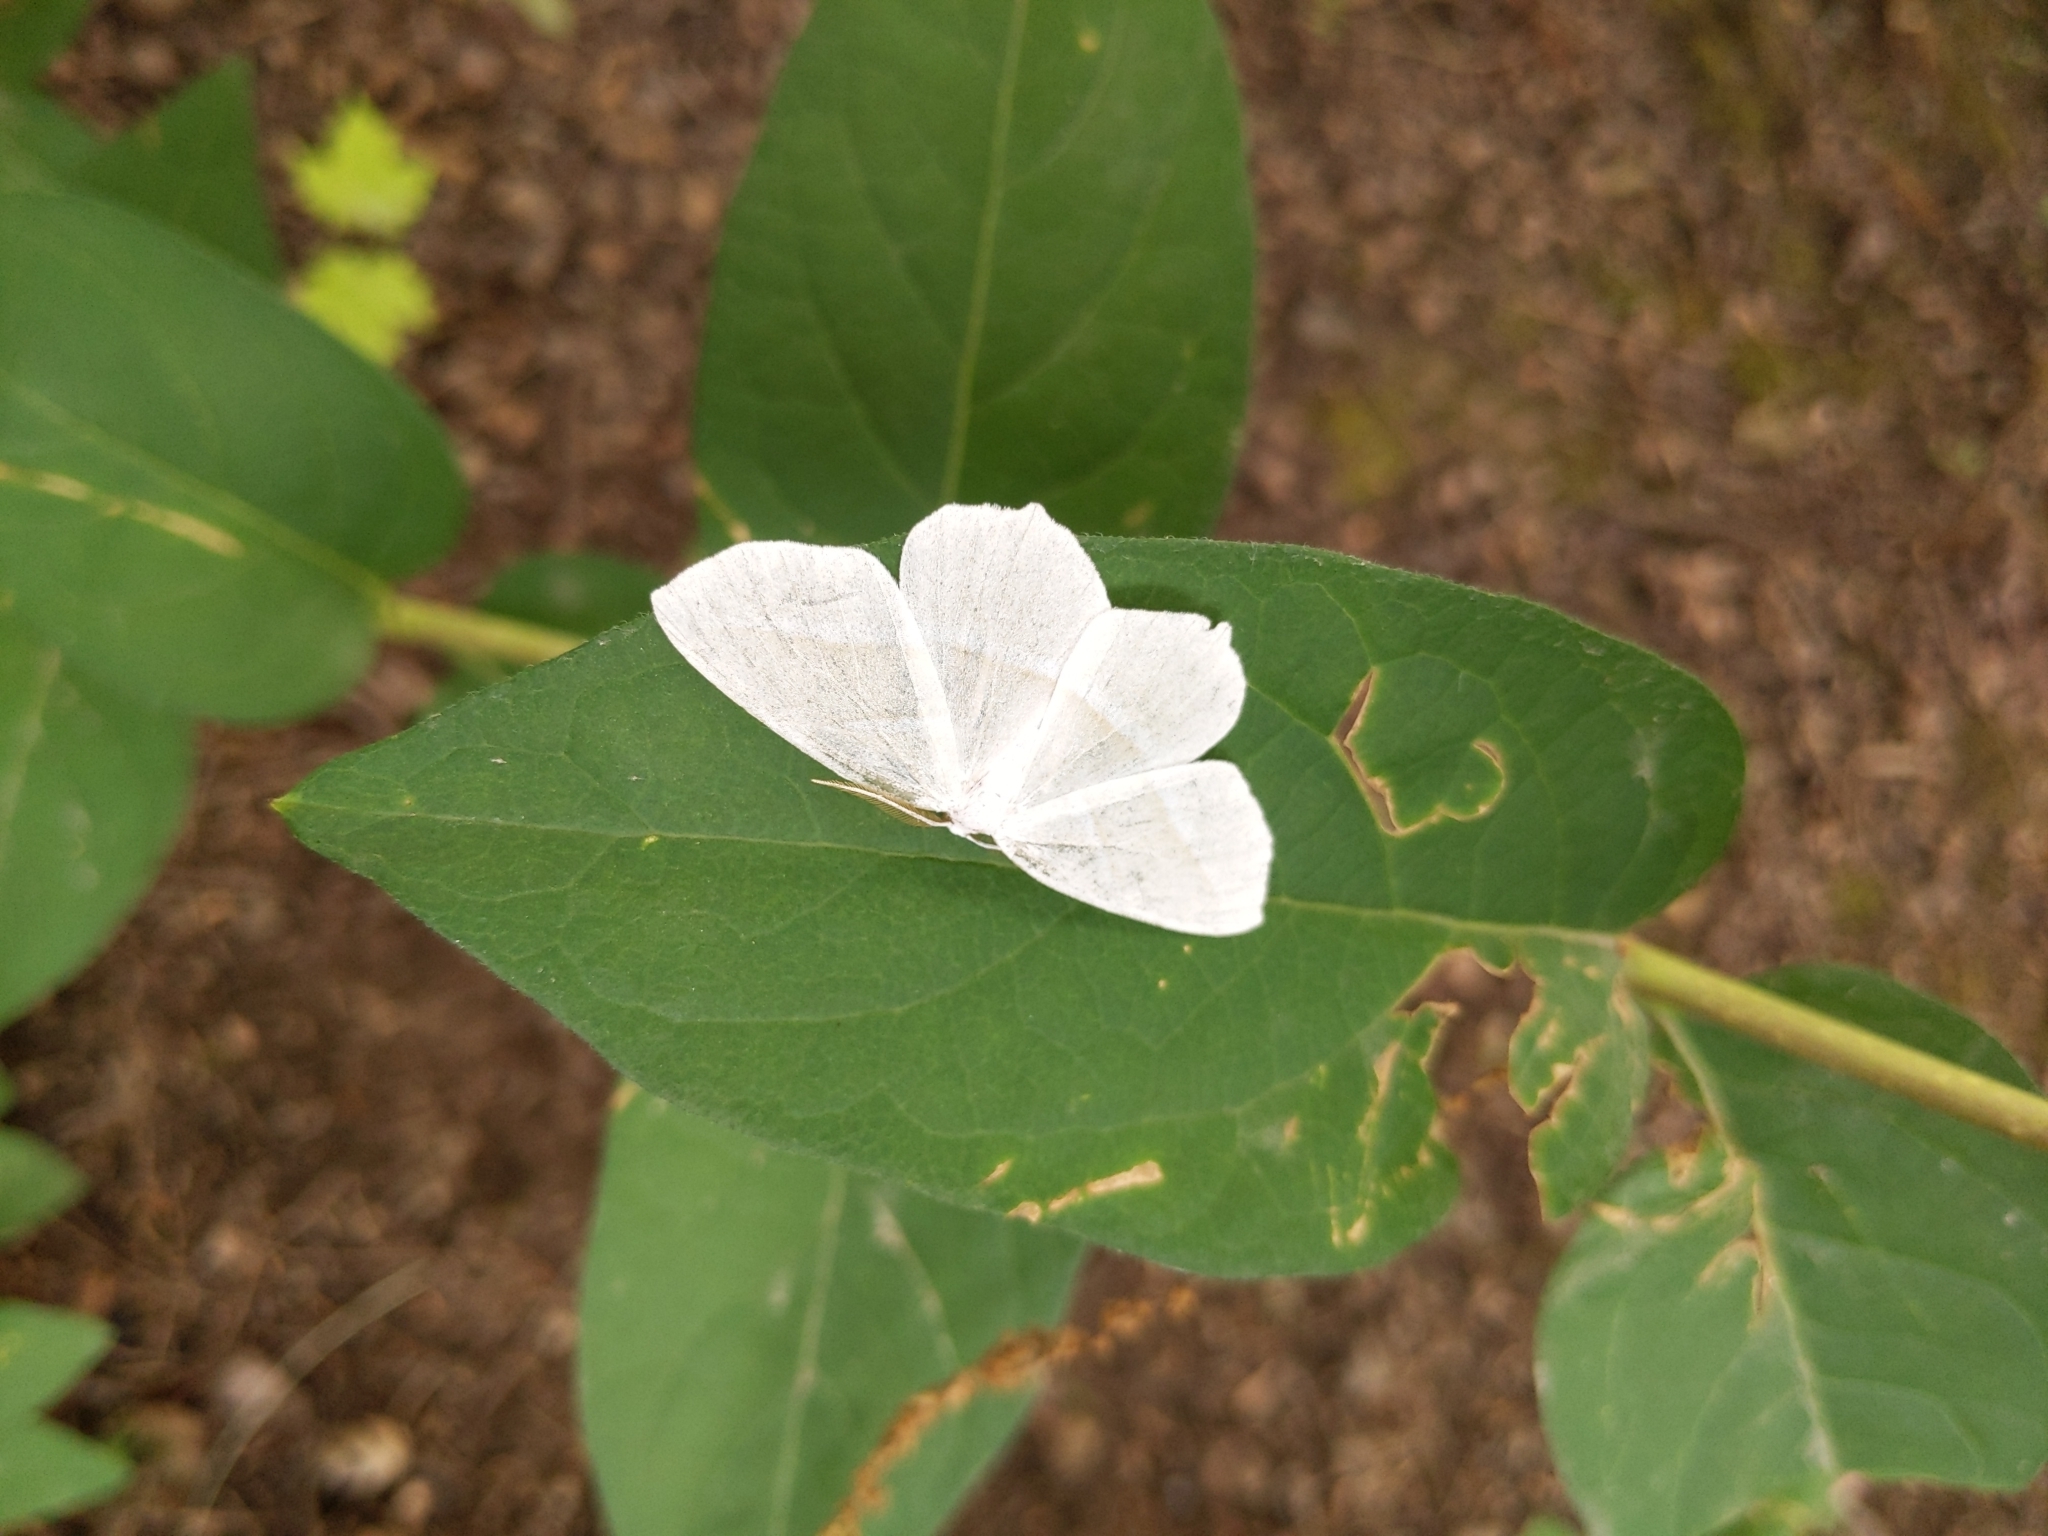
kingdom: Animalia
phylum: Arthropoda
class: Insecta
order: Lepidoptera
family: Geometridae
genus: Campaea
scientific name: Campaea perlata
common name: Fringed looper
